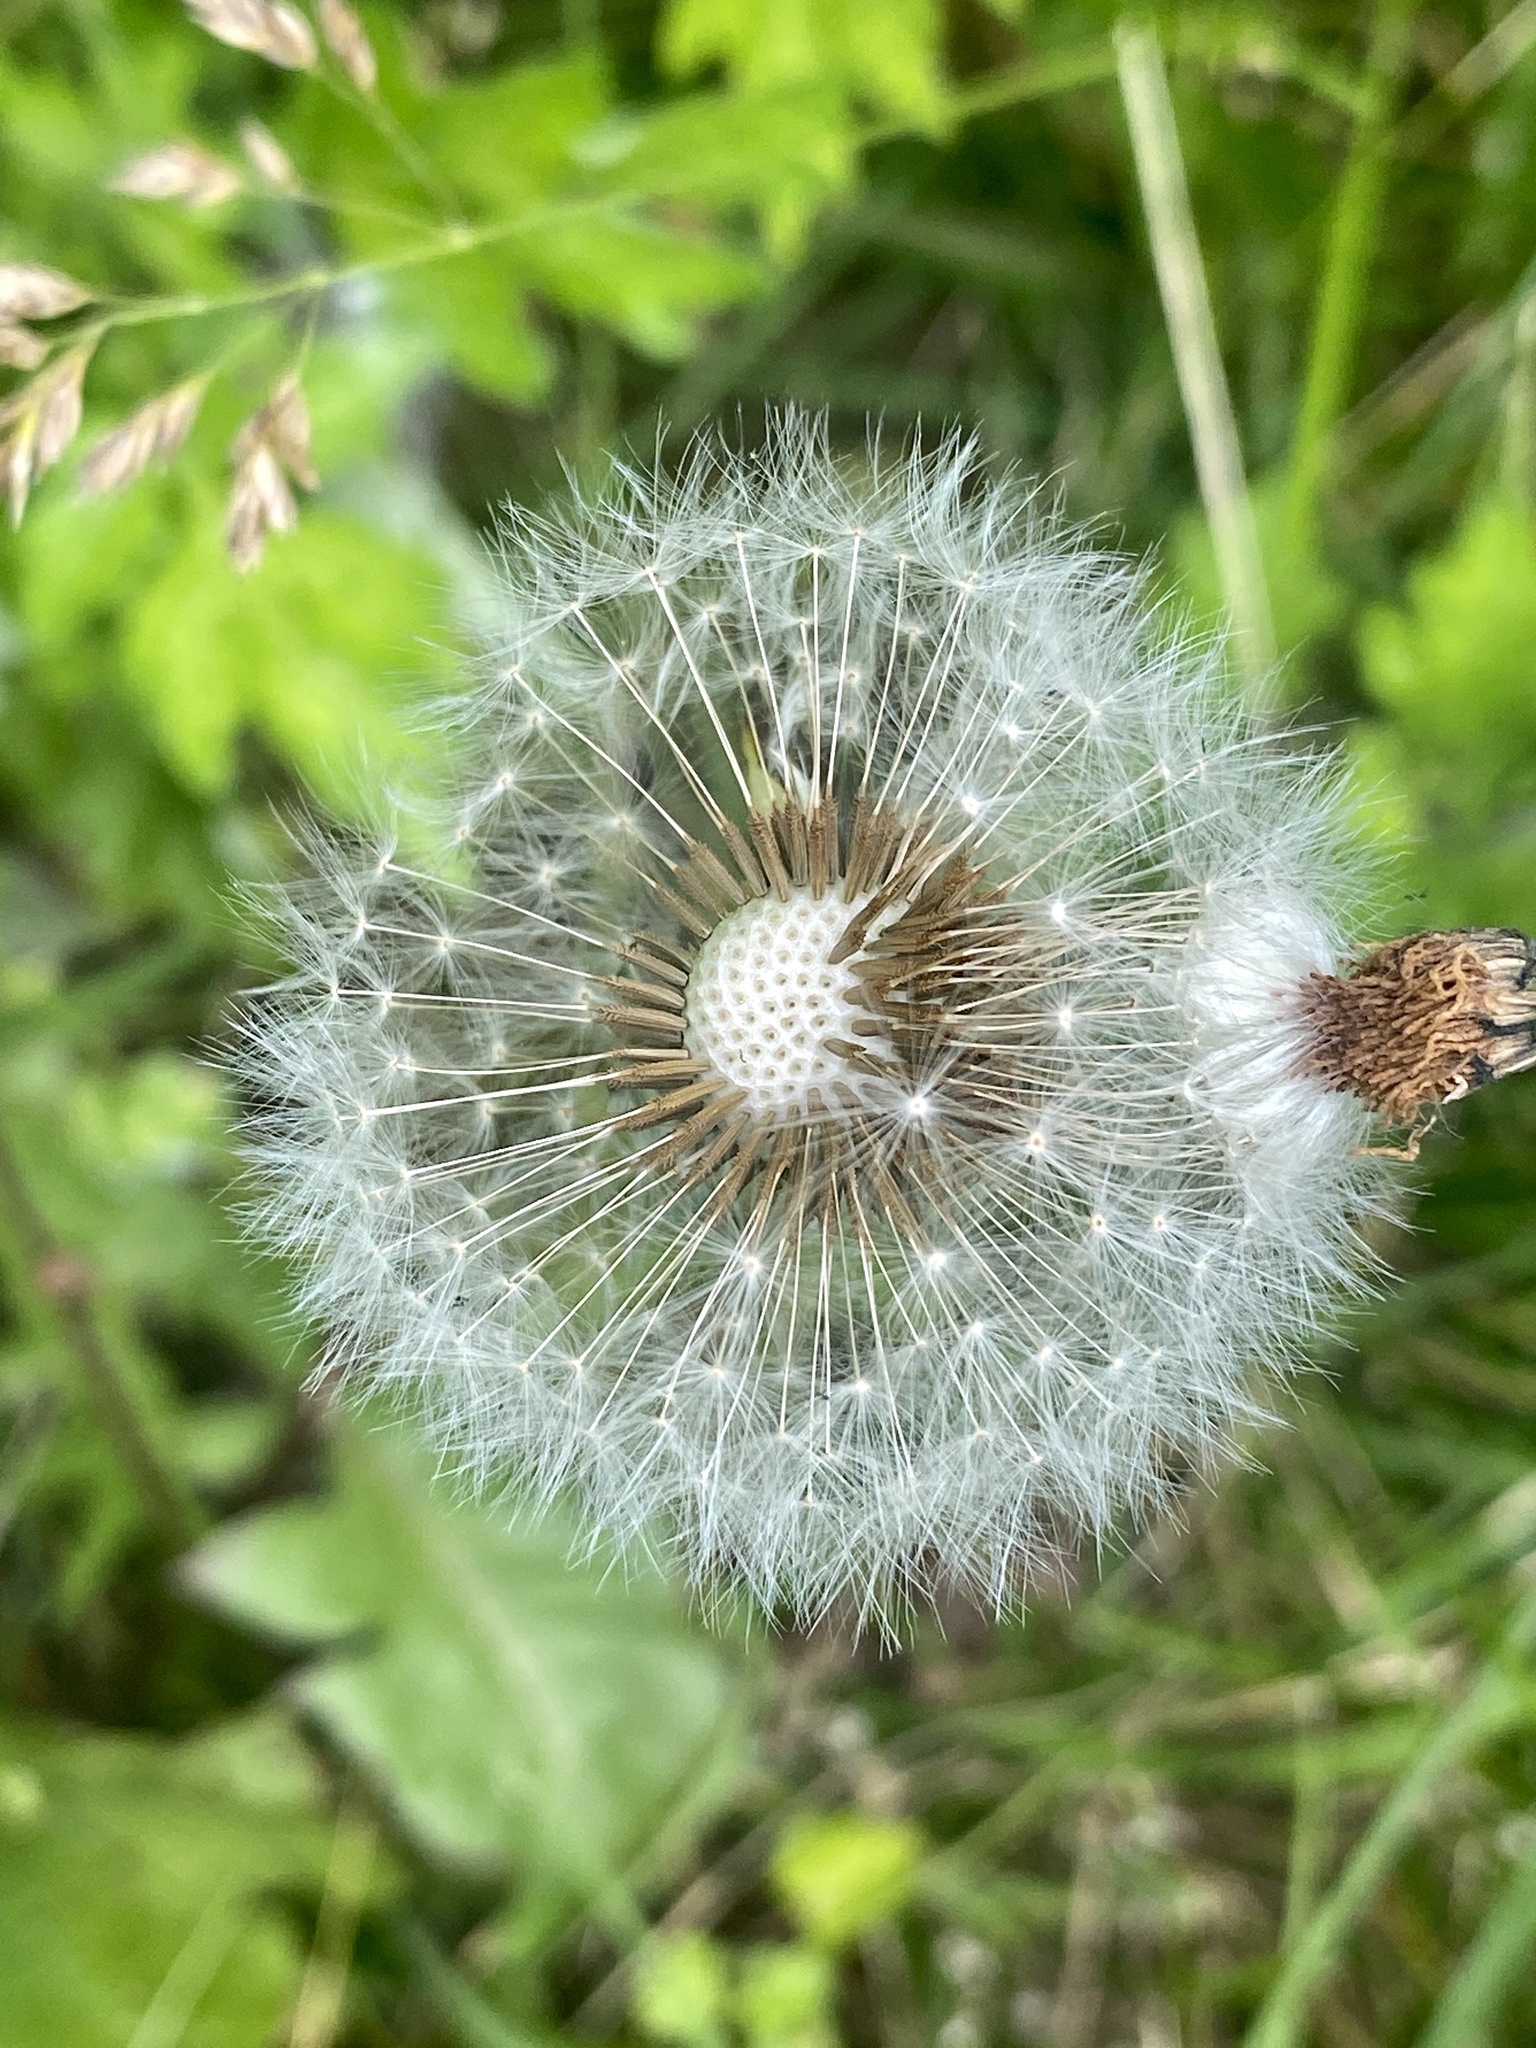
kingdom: Plantae
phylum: Tracheophyta
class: Magnoliopsida
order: Asterales
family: Asteraceae
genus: Taraxacum
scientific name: Taraxacum officinale
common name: Common dandelion
